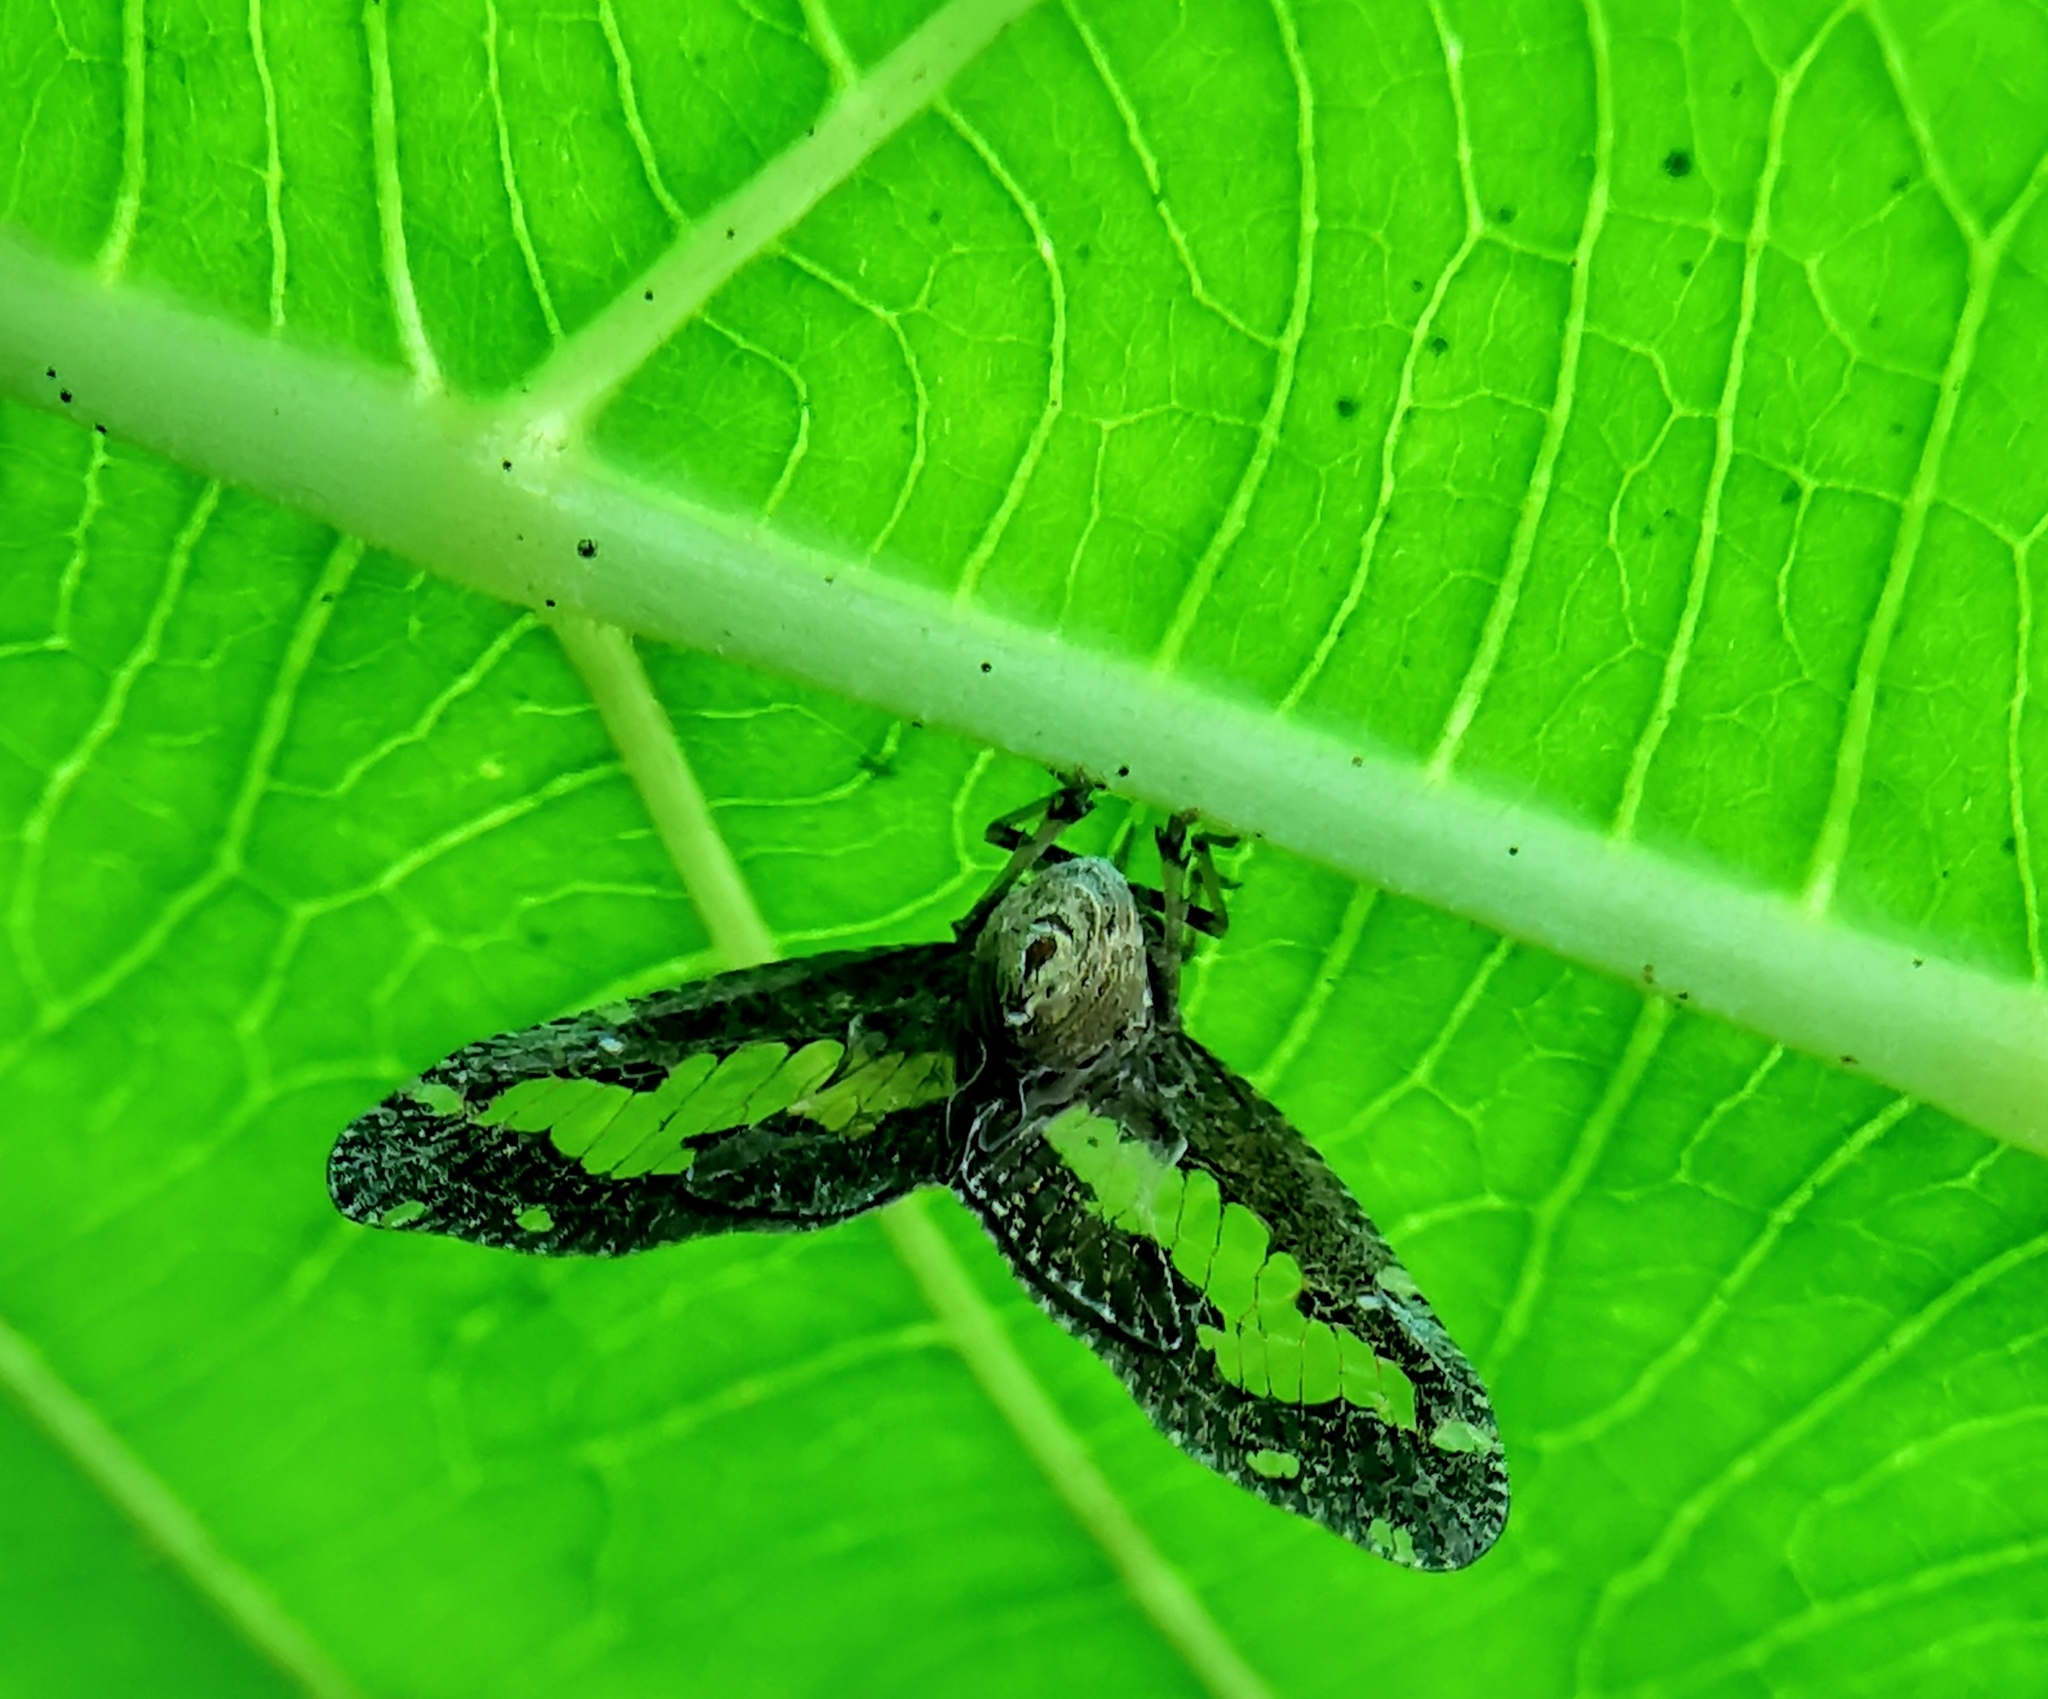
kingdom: Animalia
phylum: Arthropoda
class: Insecta
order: Hemiptera
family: Ricaniidae
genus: Ricanoptera
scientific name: Ricanoptera fenestrata
